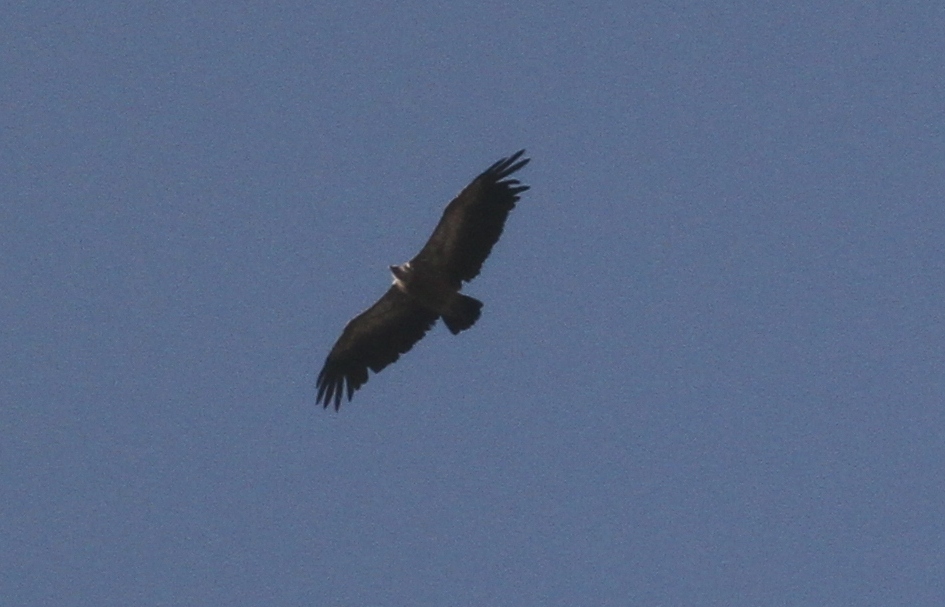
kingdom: Animalia
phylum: Chordata
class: Aves
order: Accipitriformes
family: Accipitridae
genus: Gyps
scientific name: Gyps fulvus
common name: Griffon vulture
